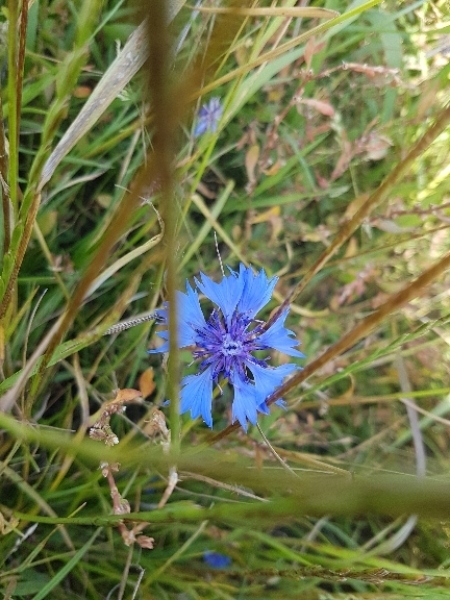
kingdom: Plantae
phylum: Tracheophyta
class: Magnoliopsida
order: Asterales
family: Asteraceae
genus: Centaurea
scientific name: Centaurea cyanus
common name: Cornflower
